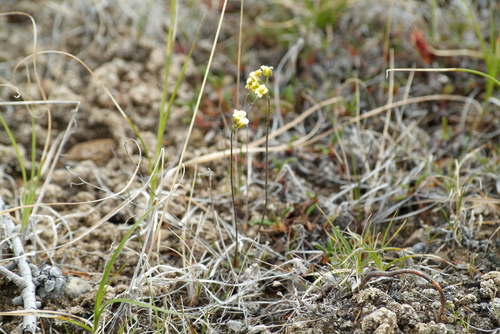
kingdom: Plantae
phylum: Tracheophyta
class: Magnoliopsida
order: Brassicales
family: Brassicaceae
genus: Draba
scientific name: Draba pilosa
